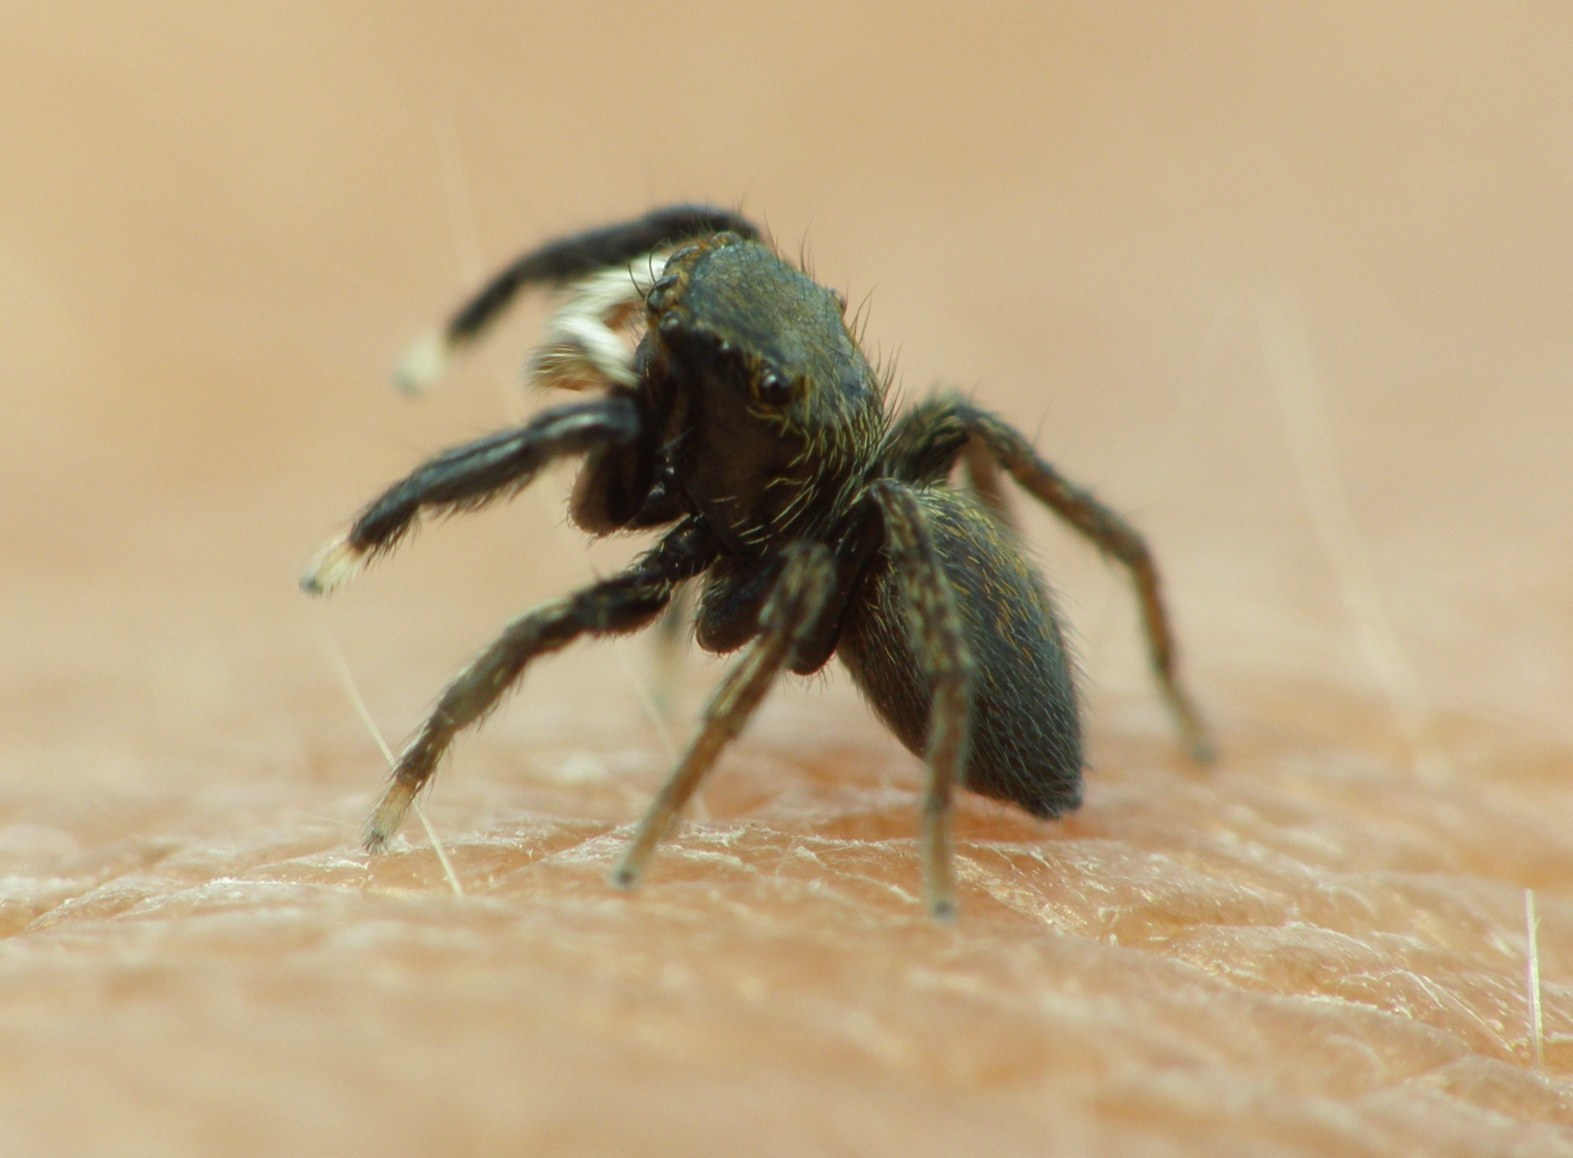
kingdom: Animalia
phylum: Arthropoda
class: Arachnida
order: Araneae
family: Salticidae
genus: Euophrys
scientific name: Euophrys frontalis
